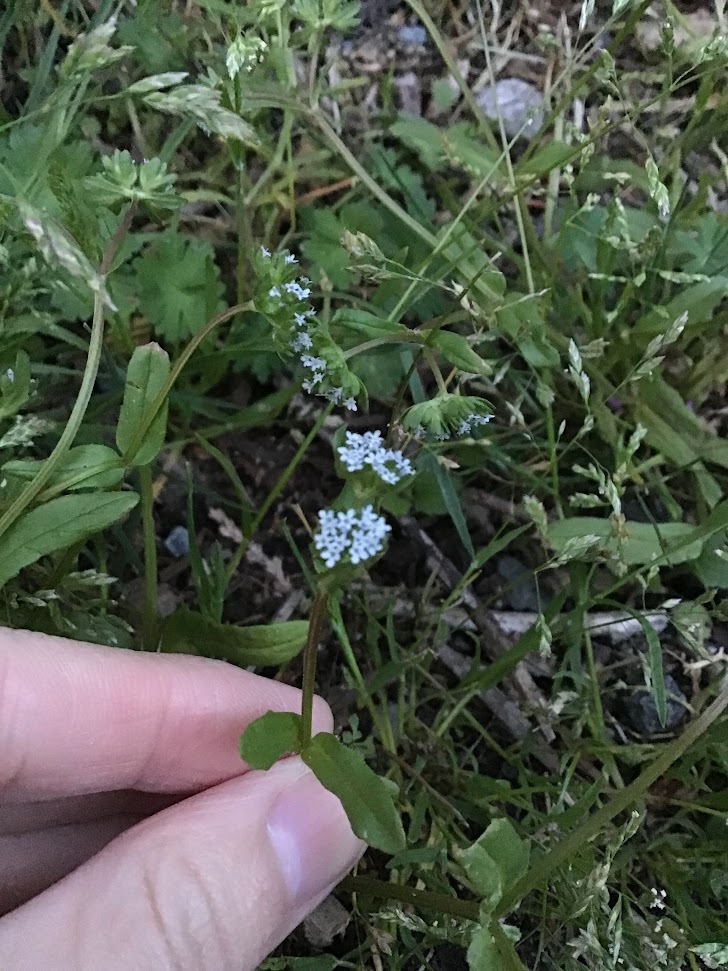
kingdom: Plantae
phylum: Tracheophyta
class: Magnoliopsida
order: Dipsacales
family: Caprifoliaceae
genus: Valerianella
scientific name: Valerianella locusta
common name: Common cornsalad
